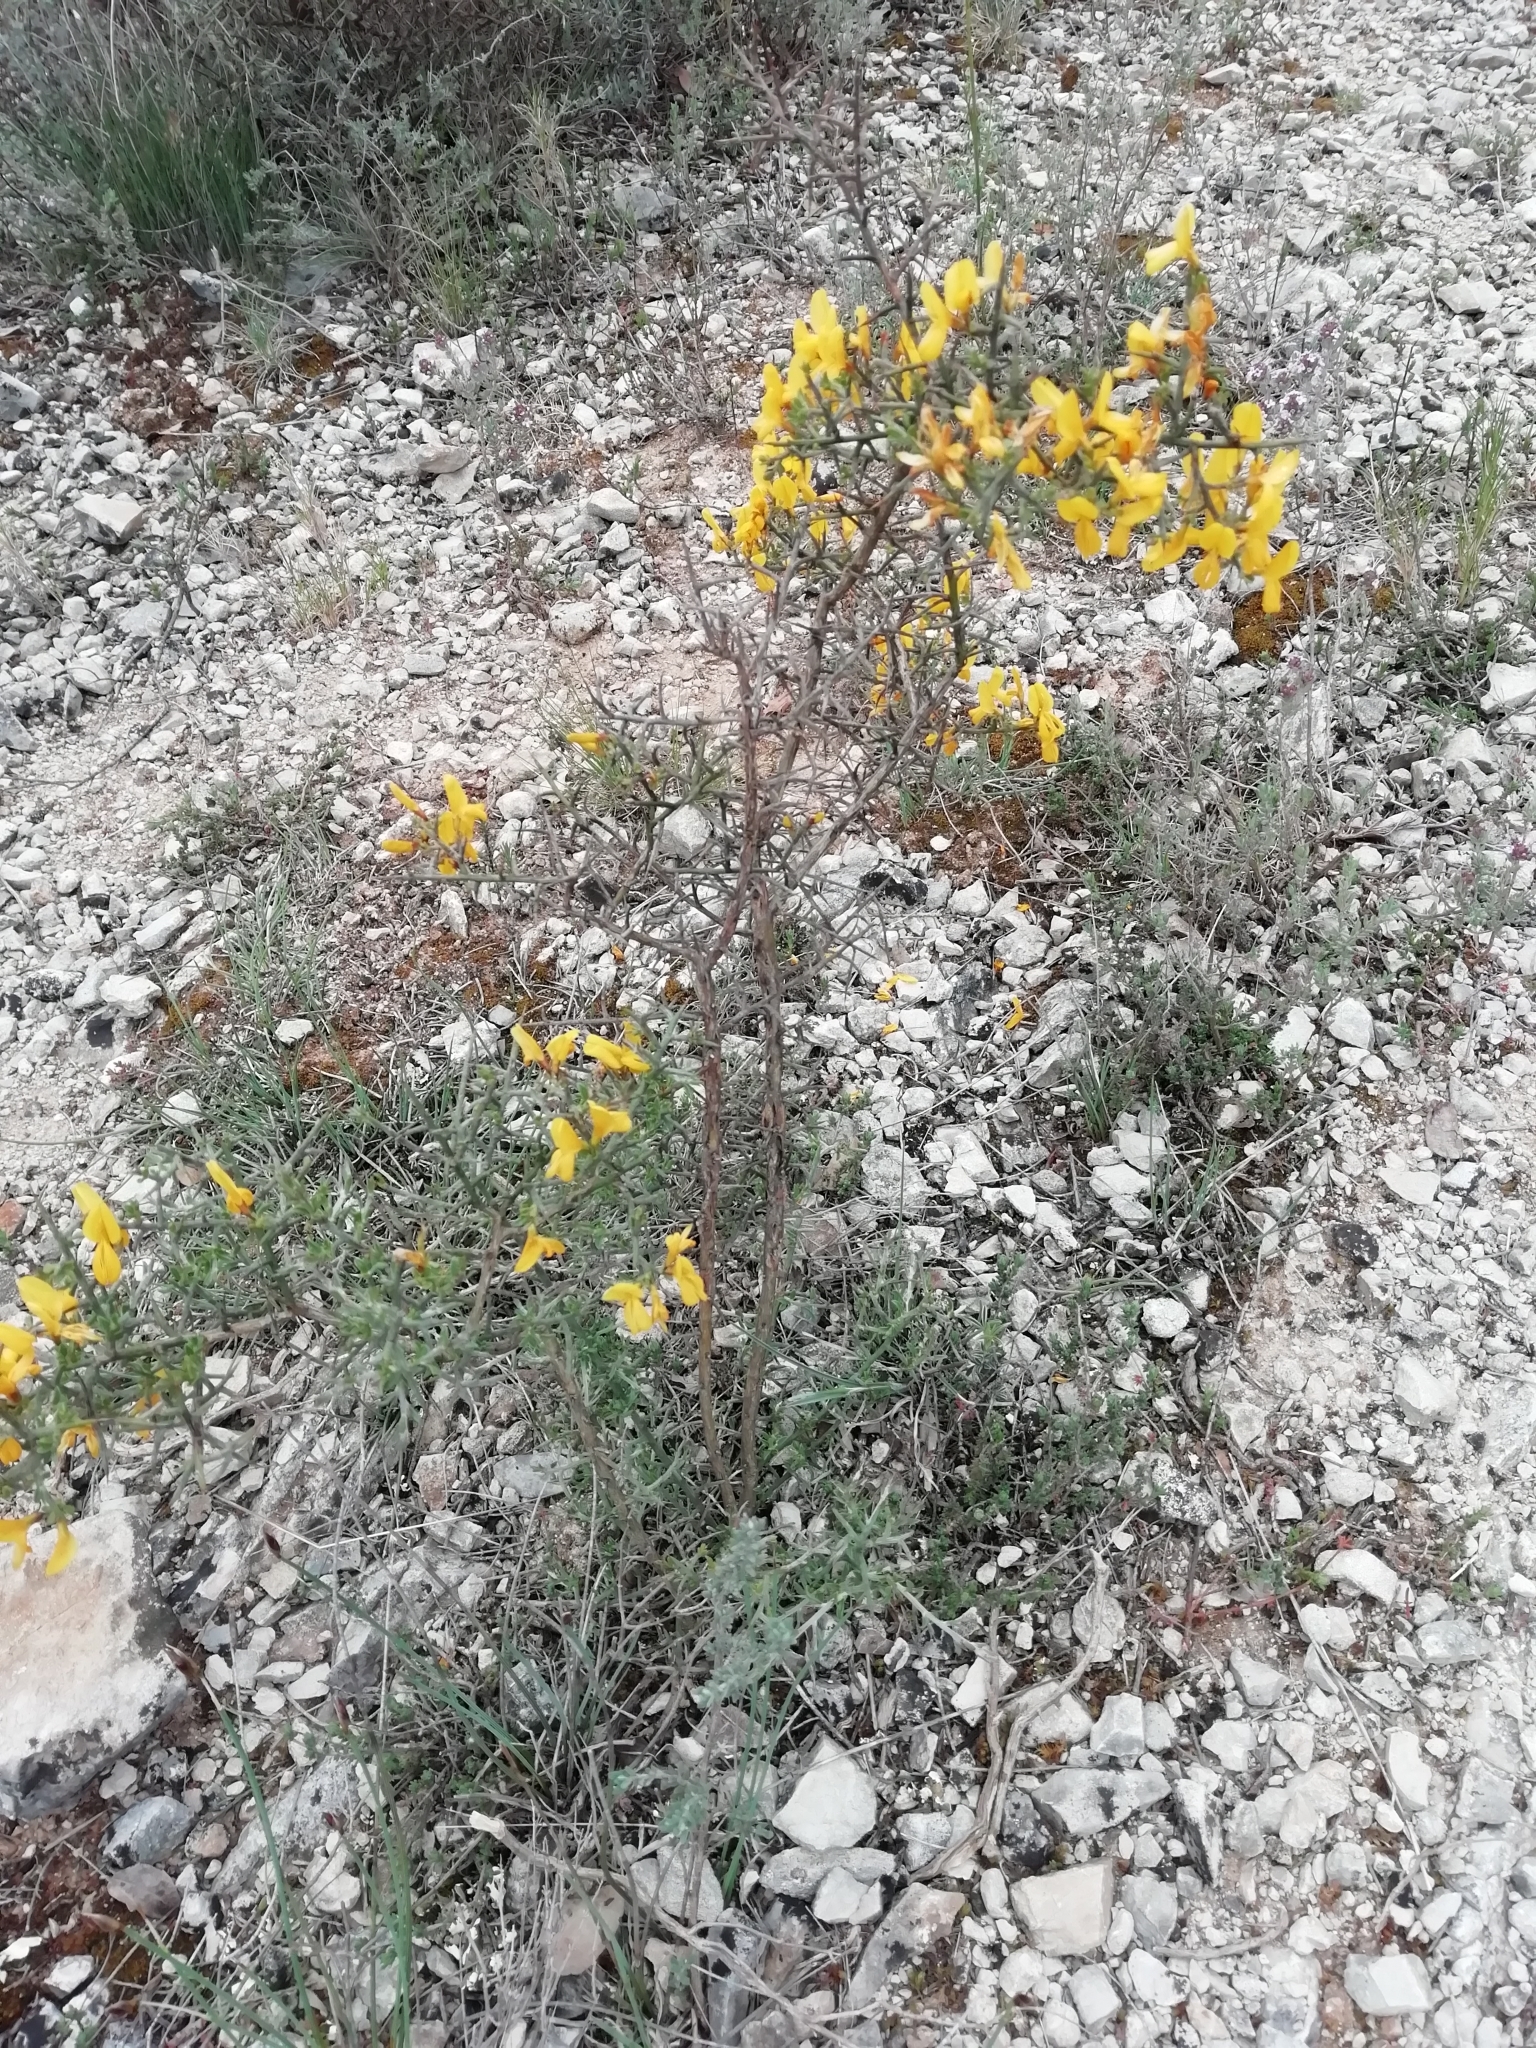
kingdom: Plantae
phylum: Tracheophyta
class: Magnoliopsida
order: Fabales
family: Fabaceae
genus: Genista
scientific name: Genista scorpius
